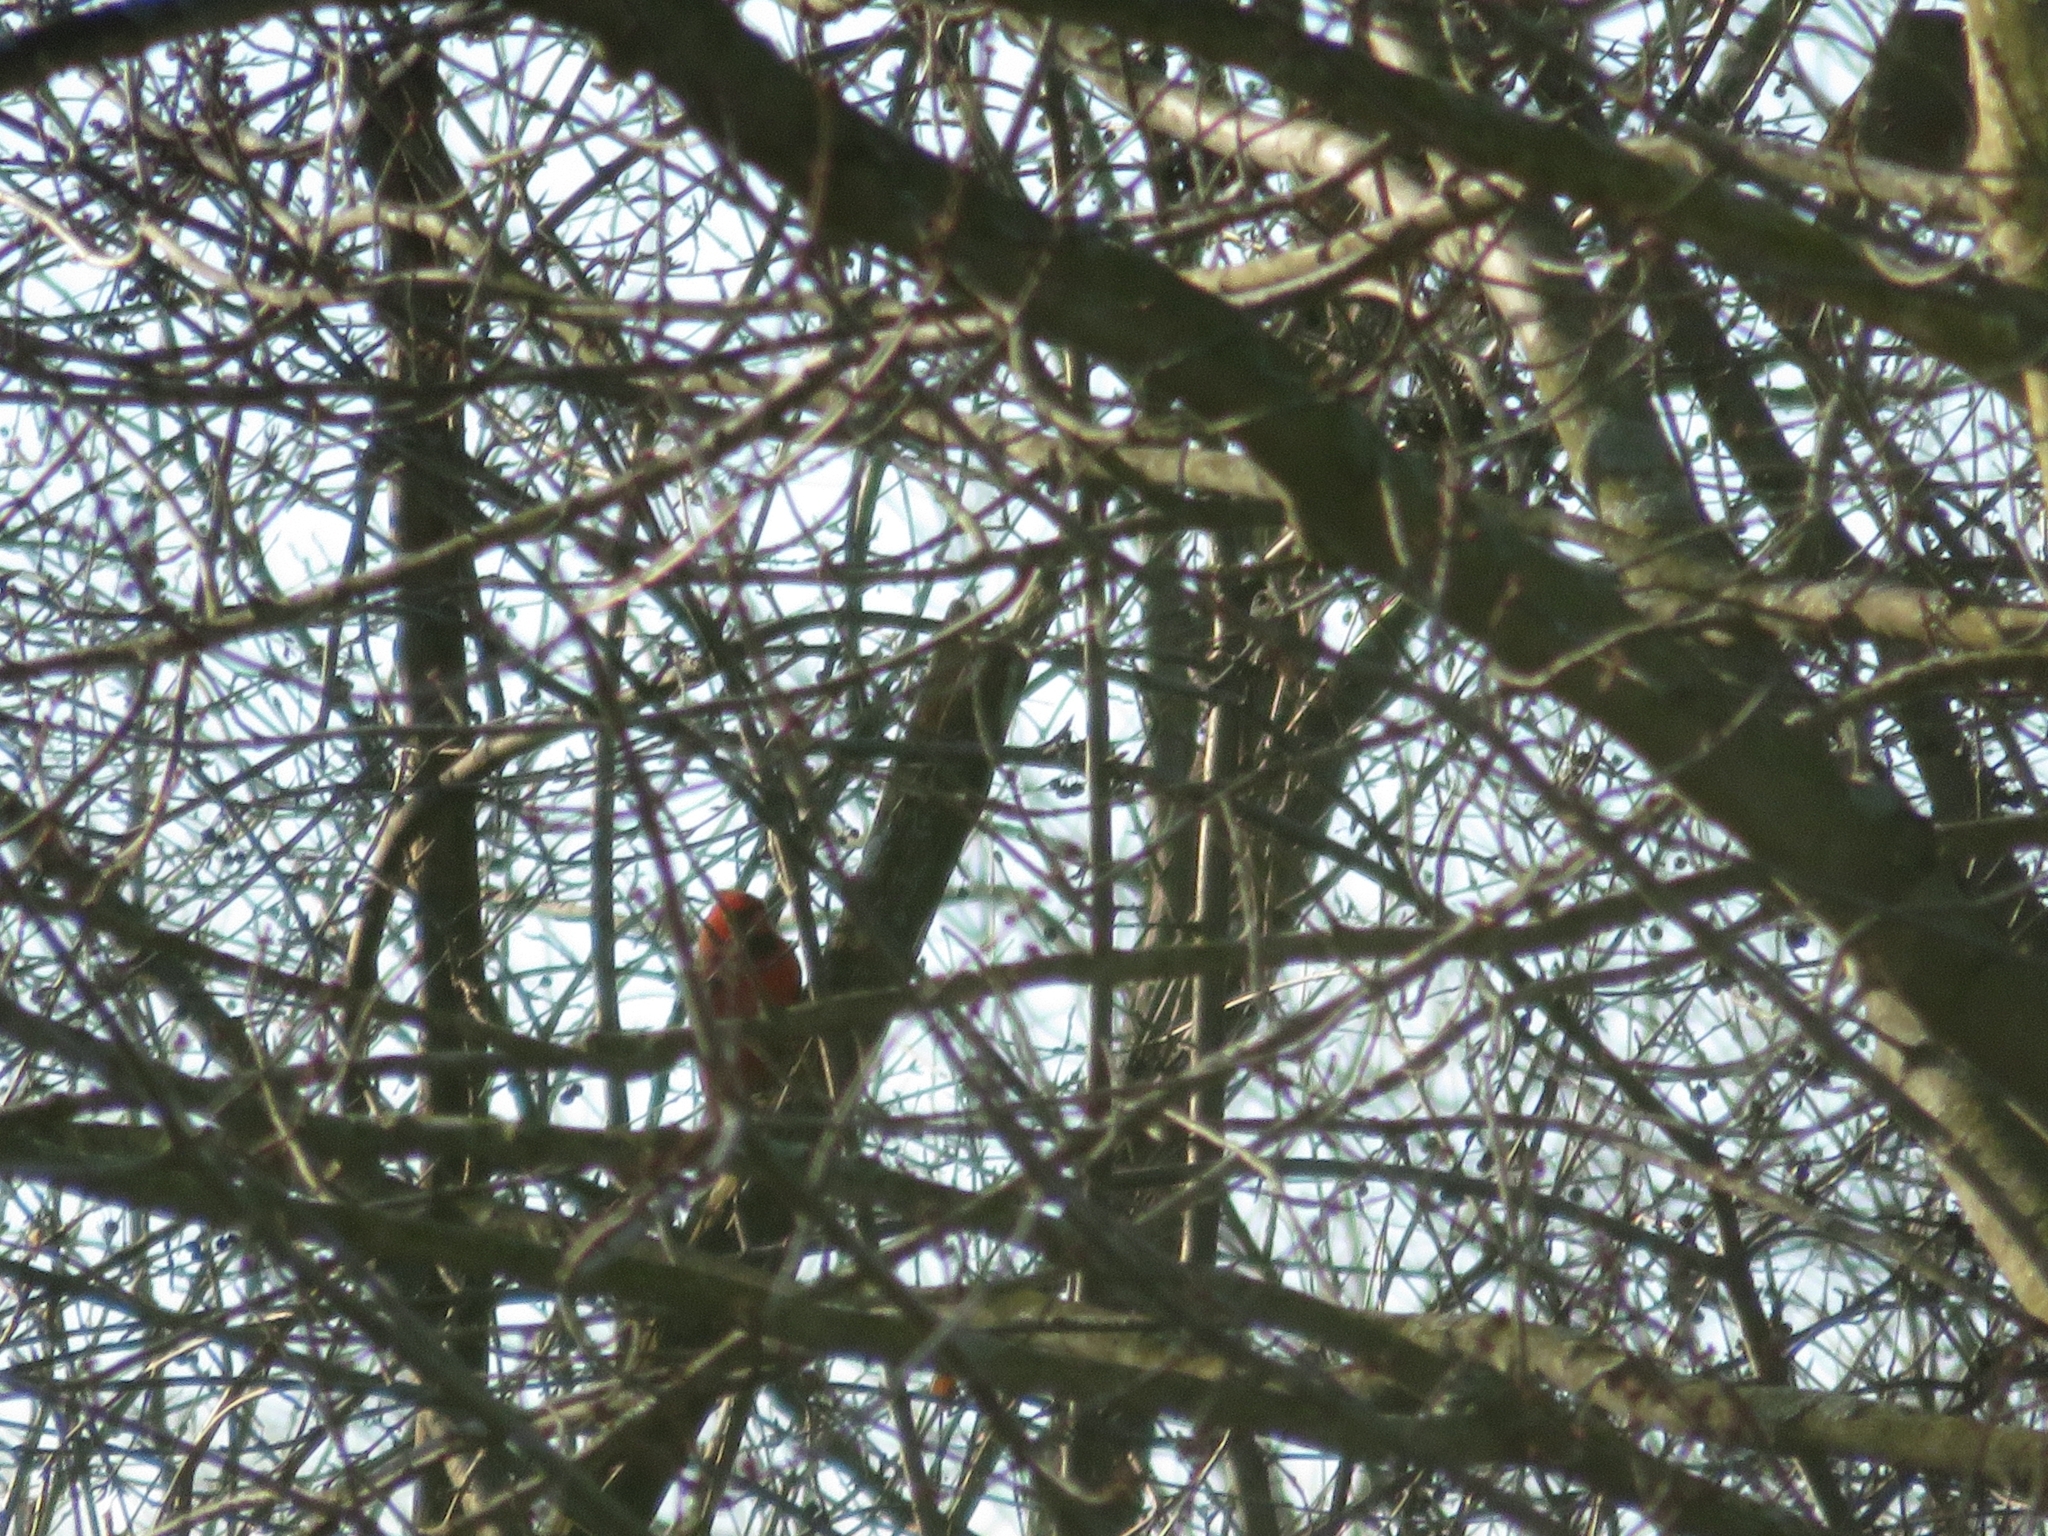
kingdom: Animalia
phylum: Chordata
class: Aves
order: Passeriformes
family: Cardinalidae
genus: Cardinalis
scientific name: Cardinalis cardinalis
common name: Northern cardinal
